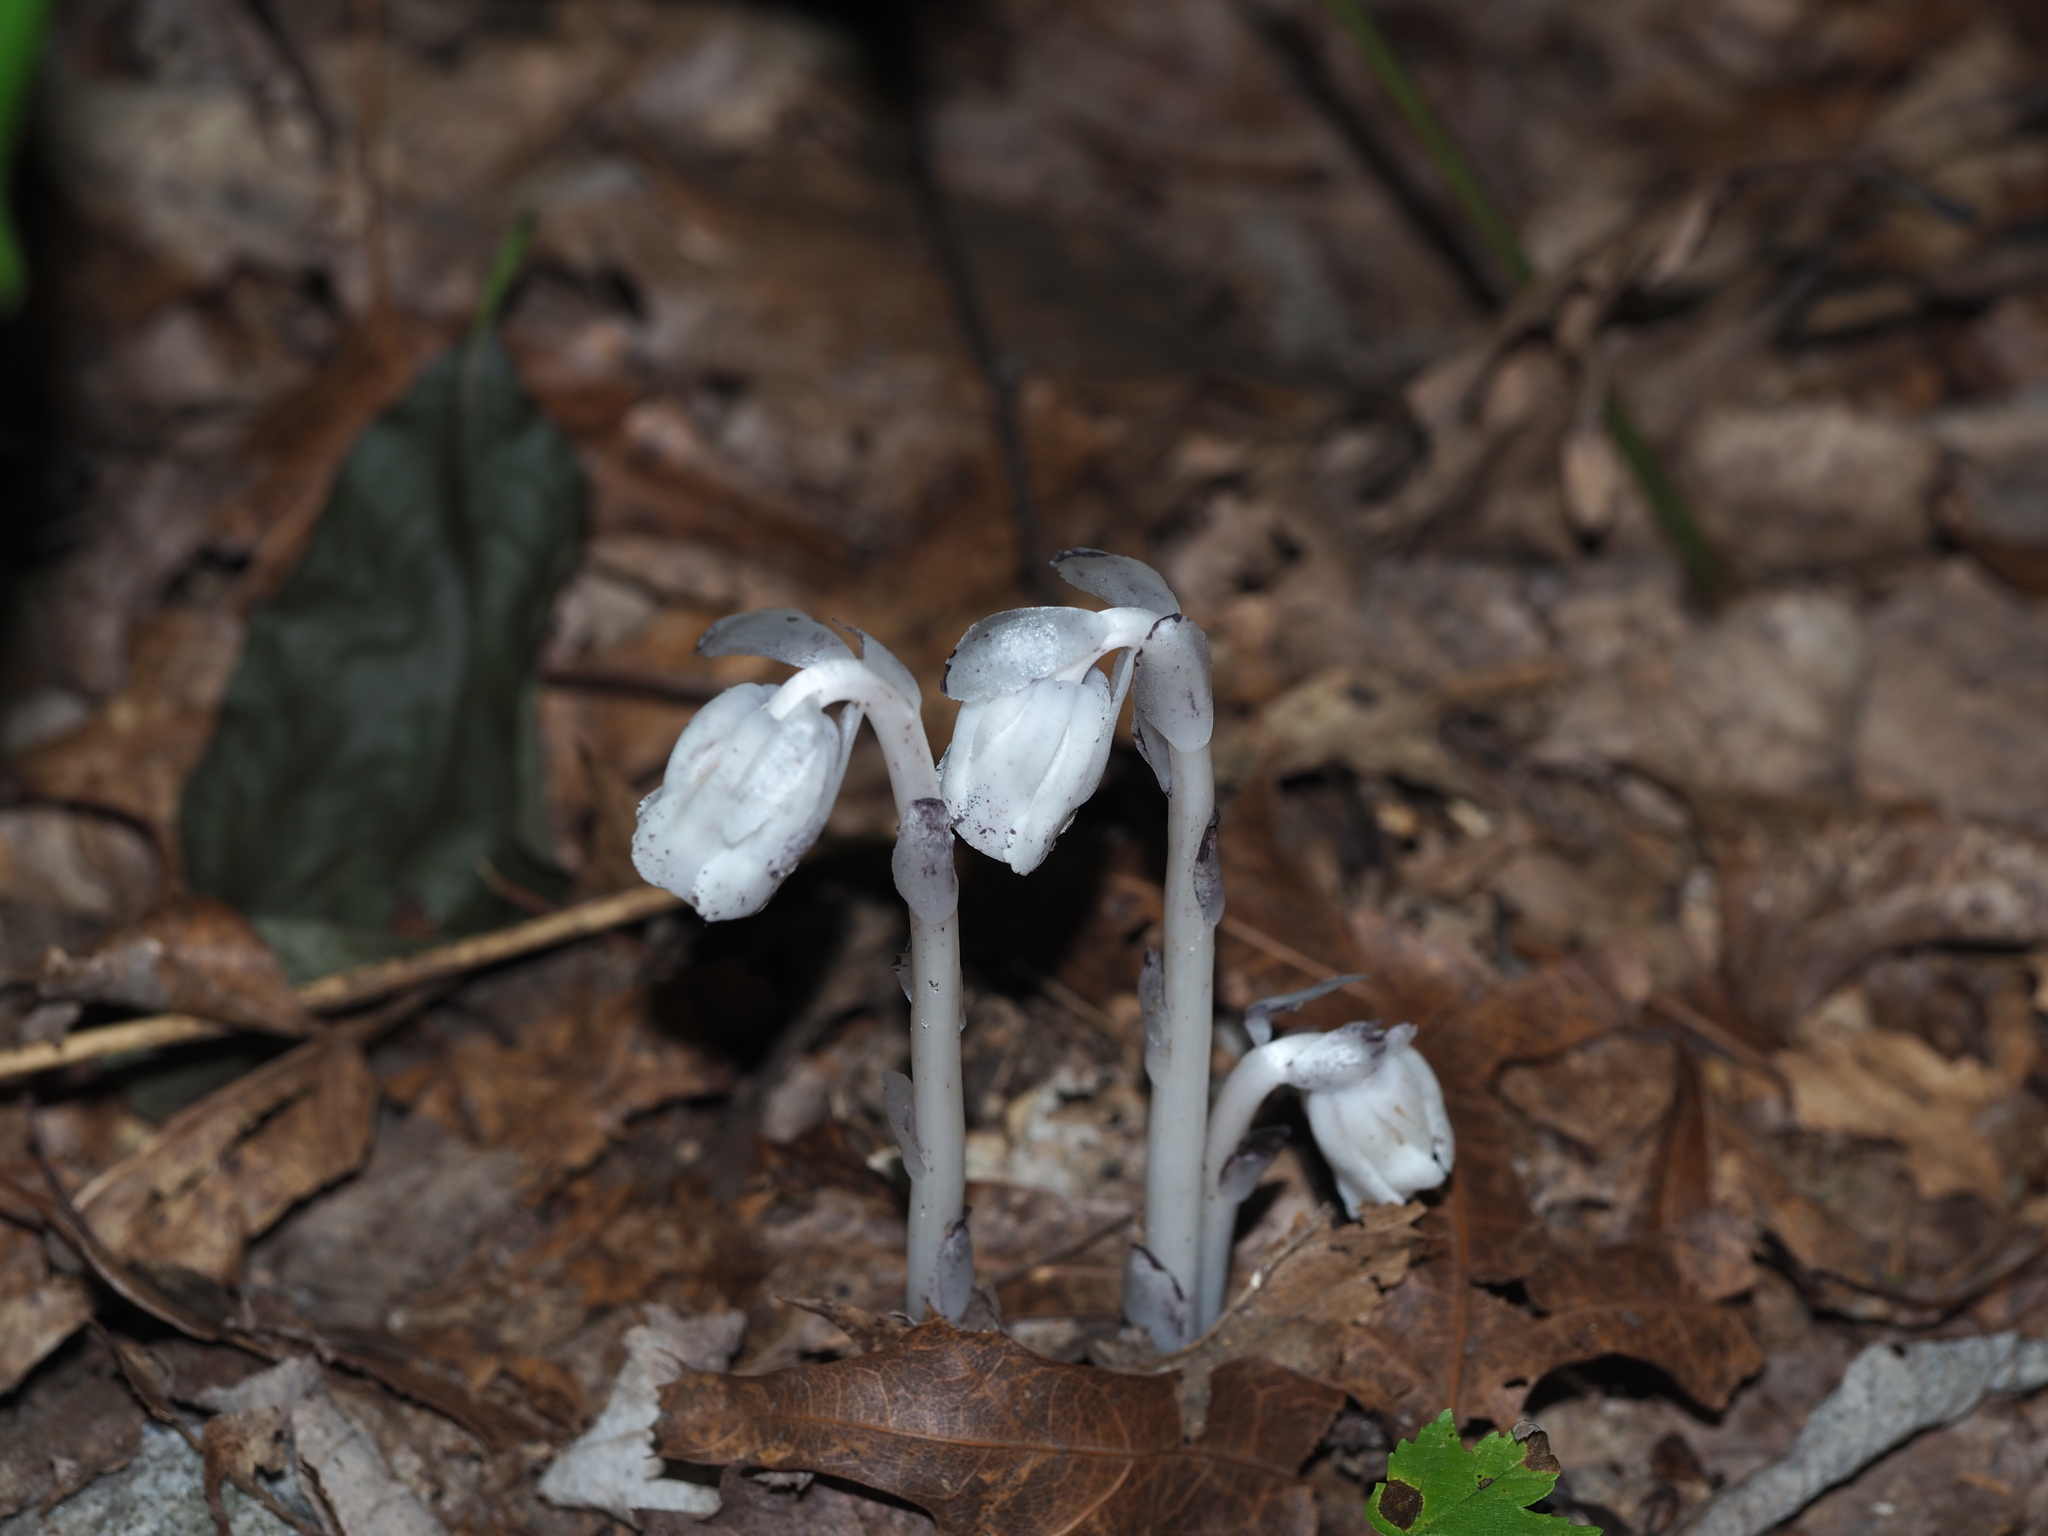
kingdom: Plantae
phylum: Tracheophyta
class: Magnoliopsida
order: Ericales
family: Ericaceae
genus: Monotropa
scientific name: Monotropa uniflora
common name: Convulsion root
